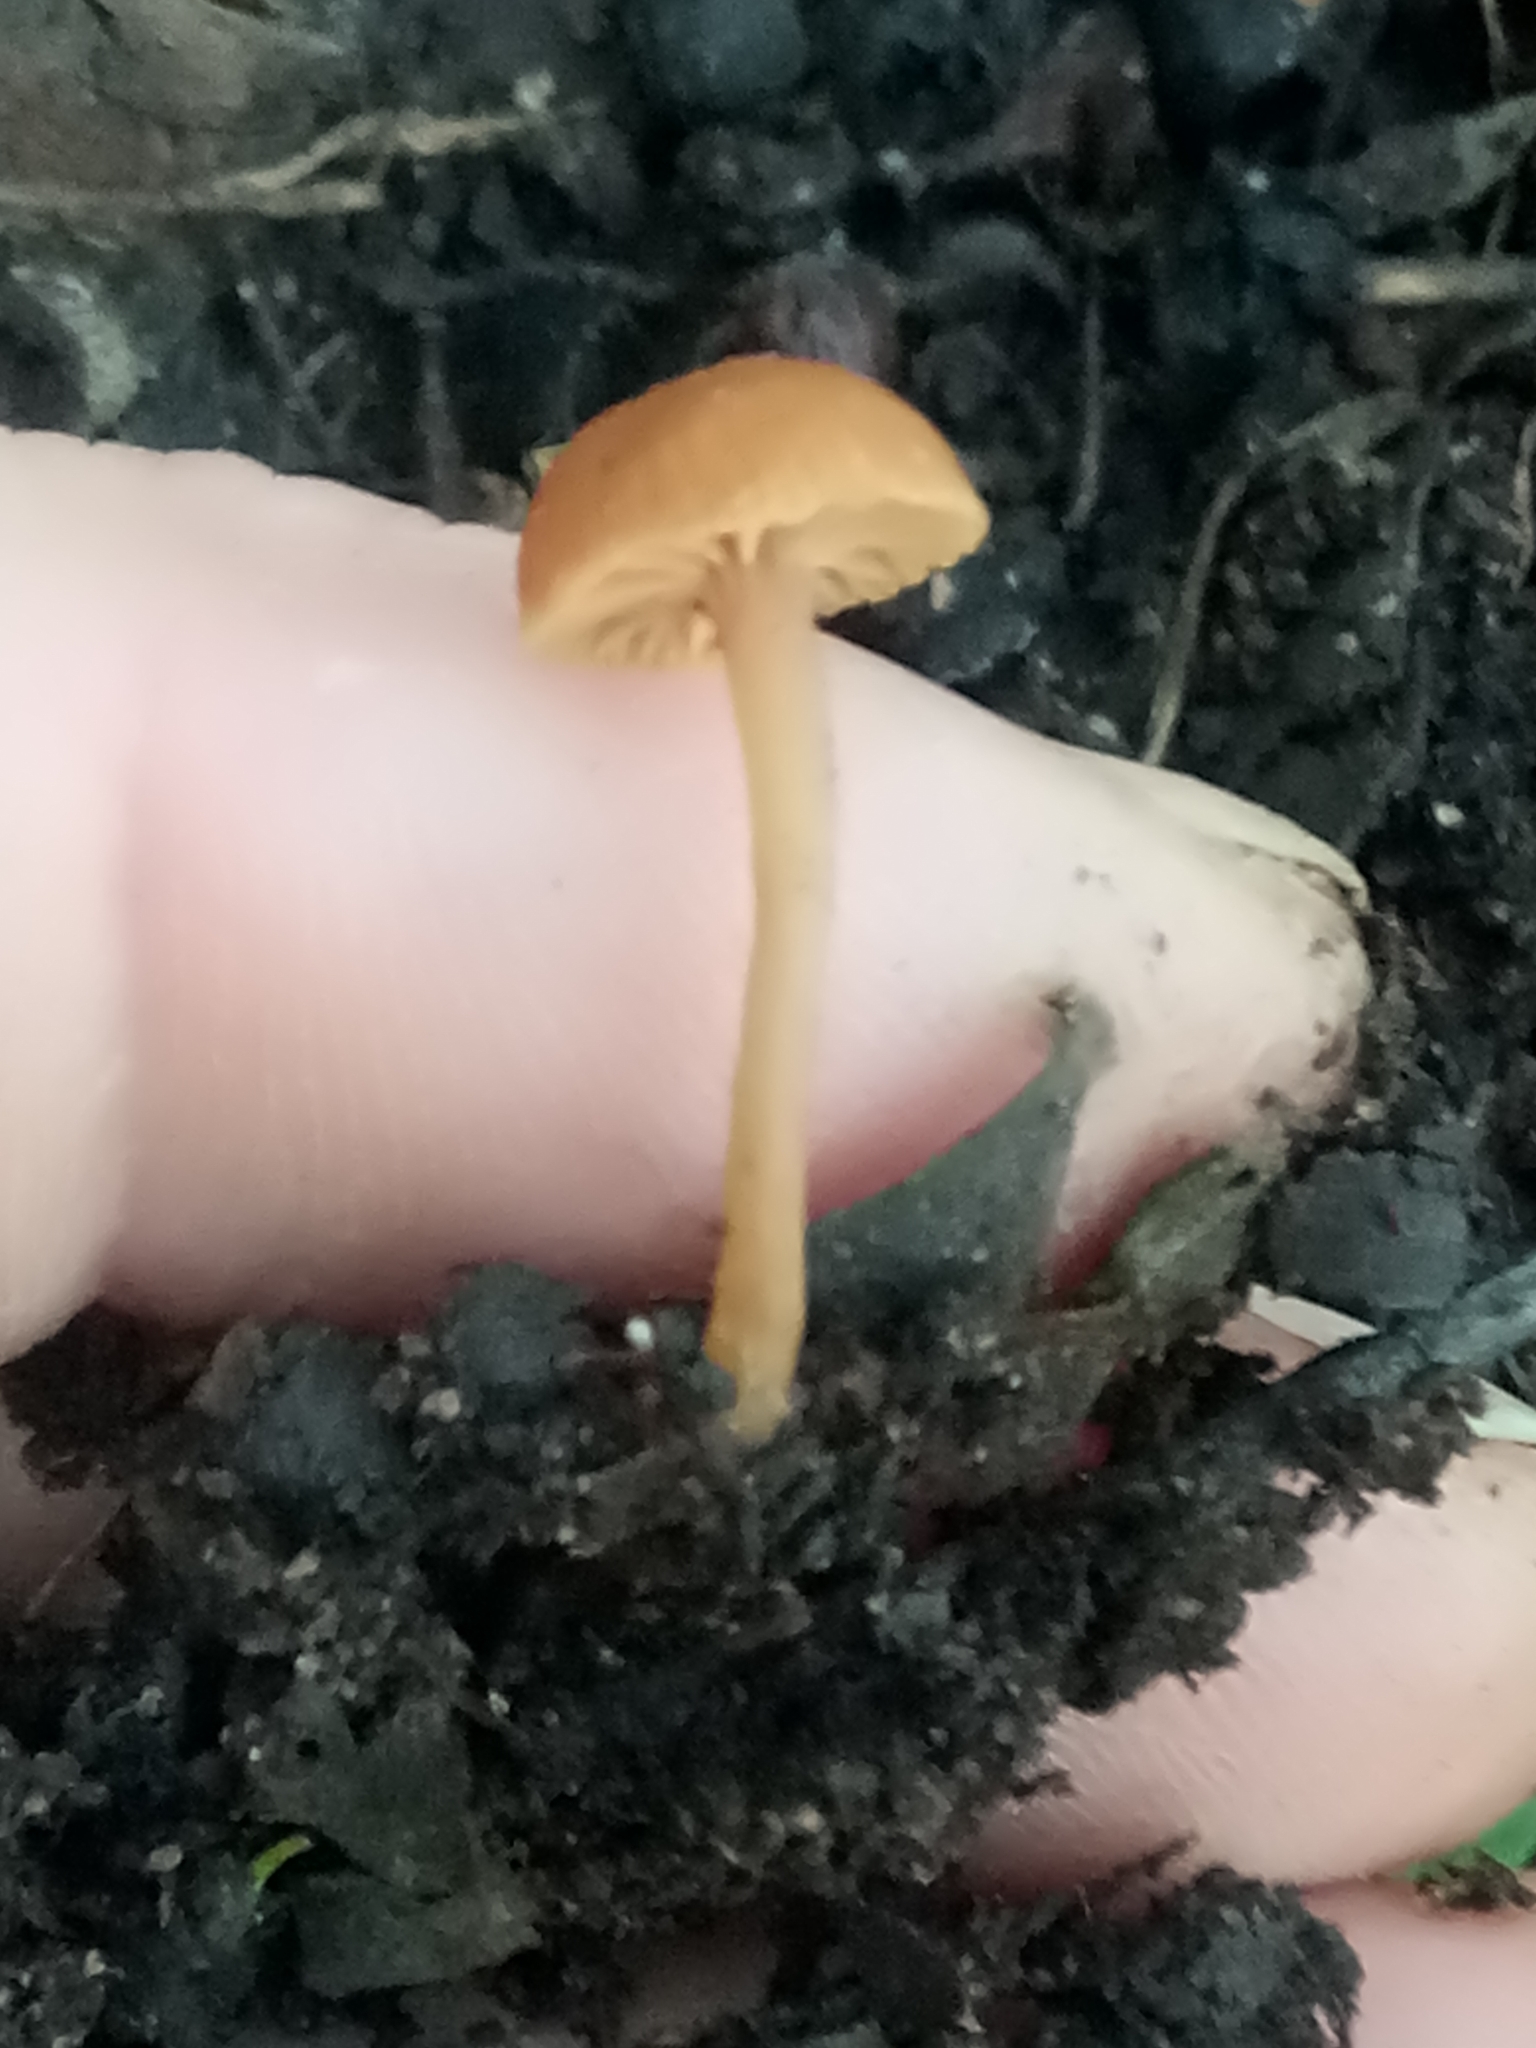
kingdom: Fungi
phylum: Basidiomycota
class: Agaricomycetes
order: Agaricales
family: Tubariaceae
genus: Tubaria
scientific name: Tubaria romagnesiana
